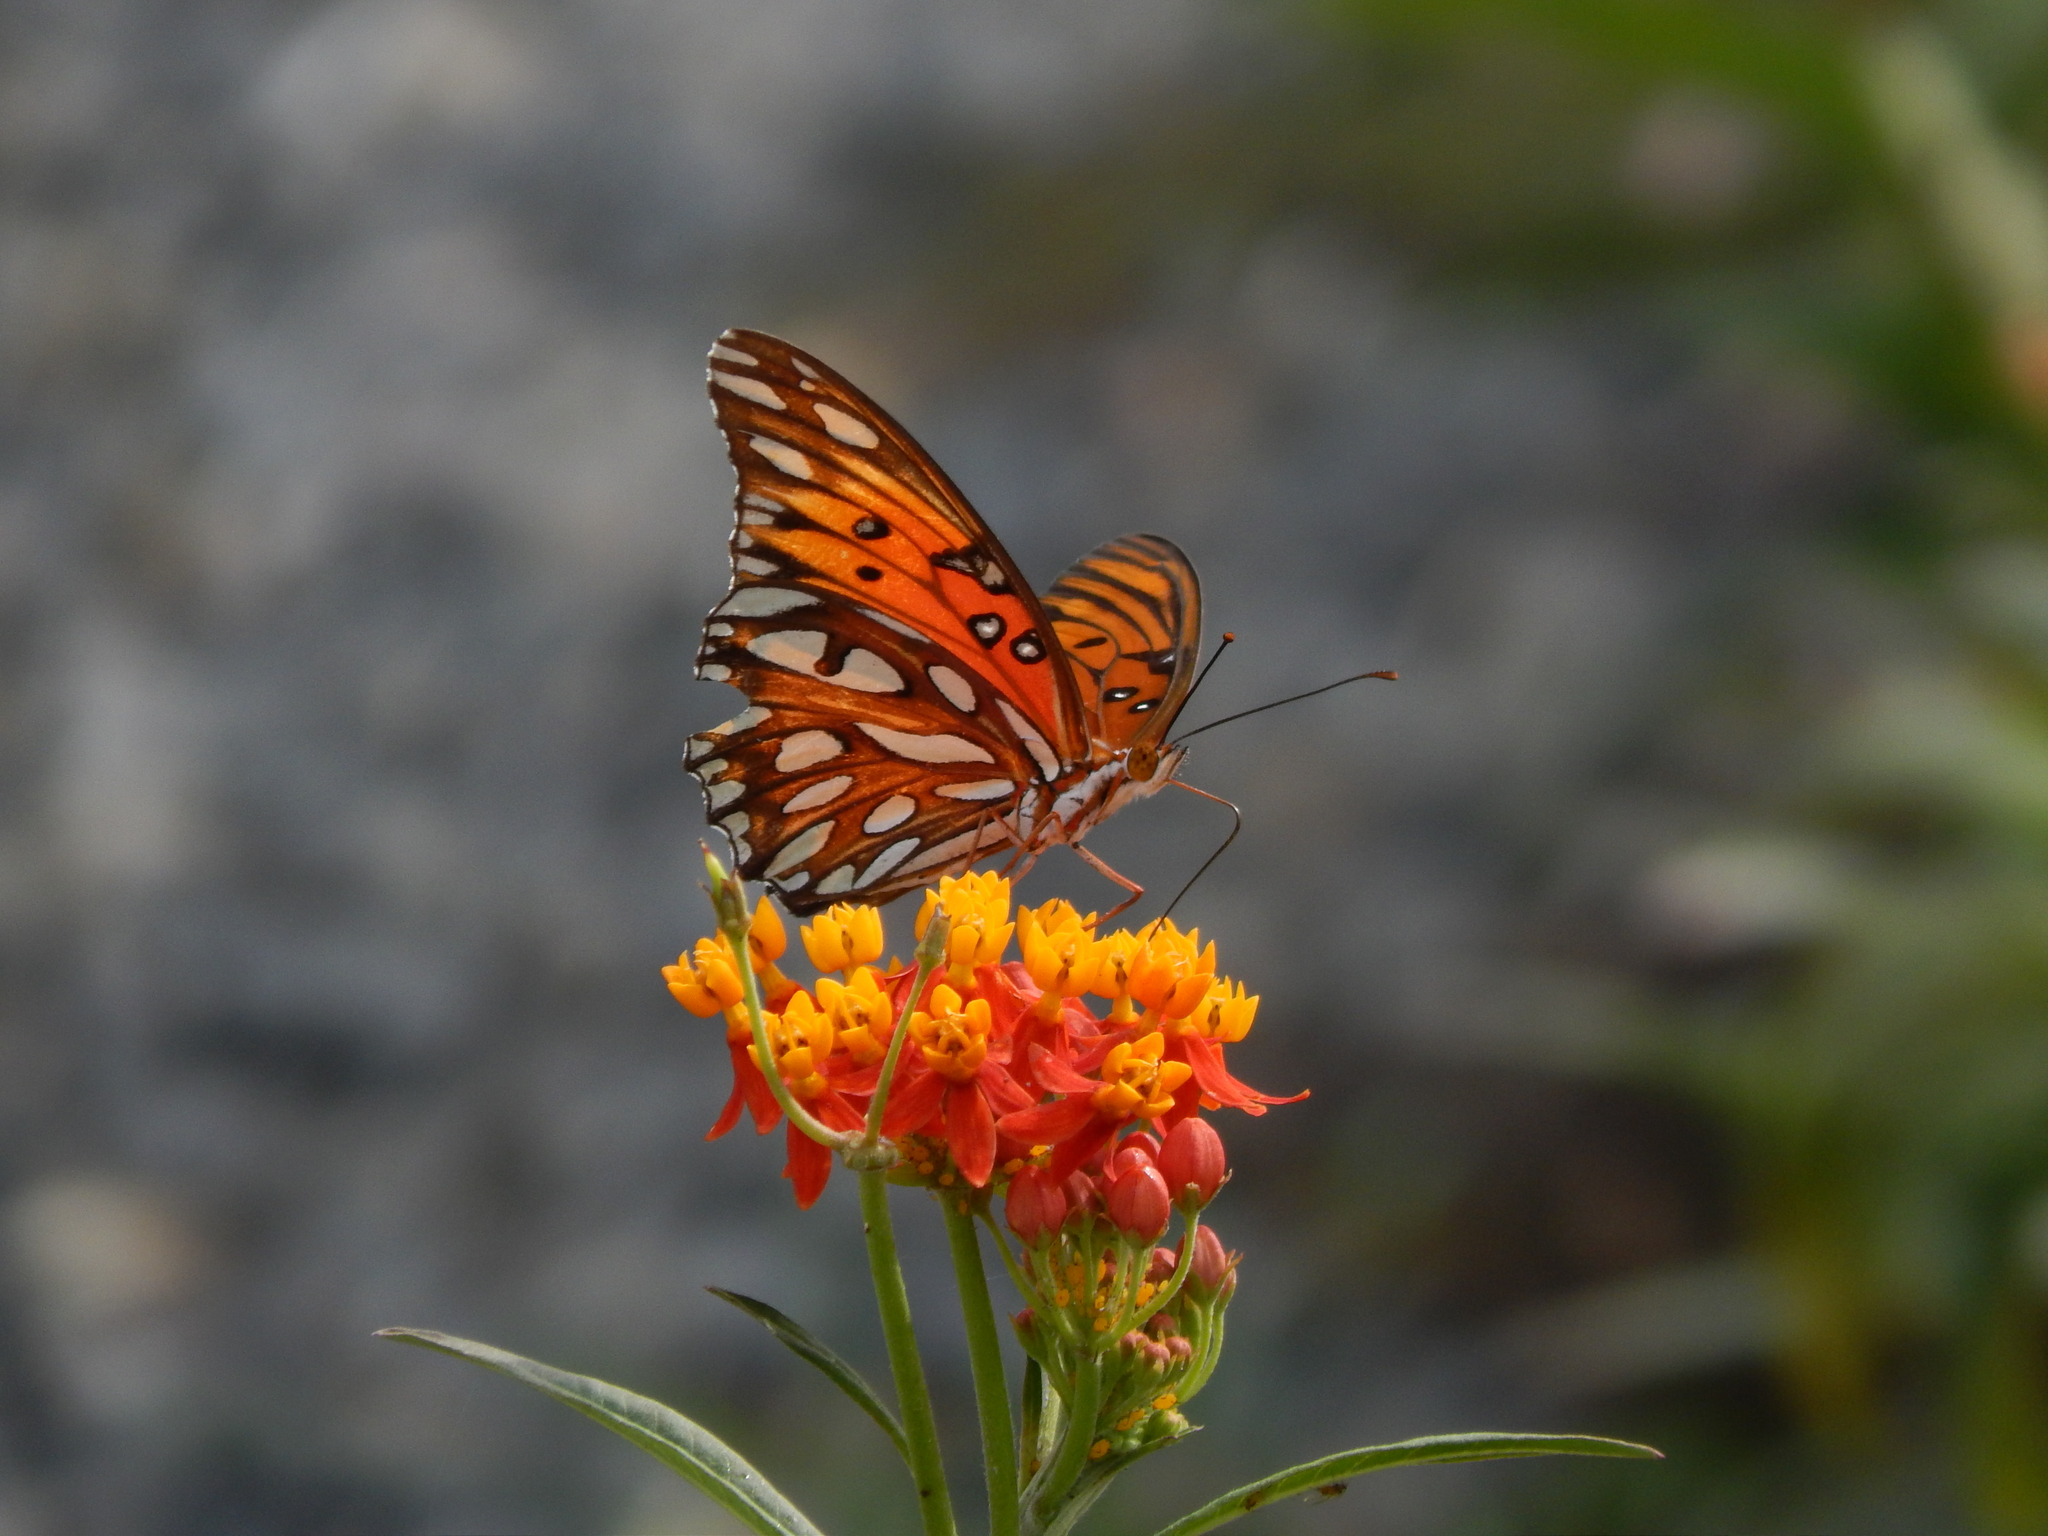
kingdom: Animalia
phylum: Arthropoda
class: Insecta
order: Lepidoptera
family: Nymphalidae
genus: Dione
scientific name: Dione vanillae
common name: Gulf fritillary
